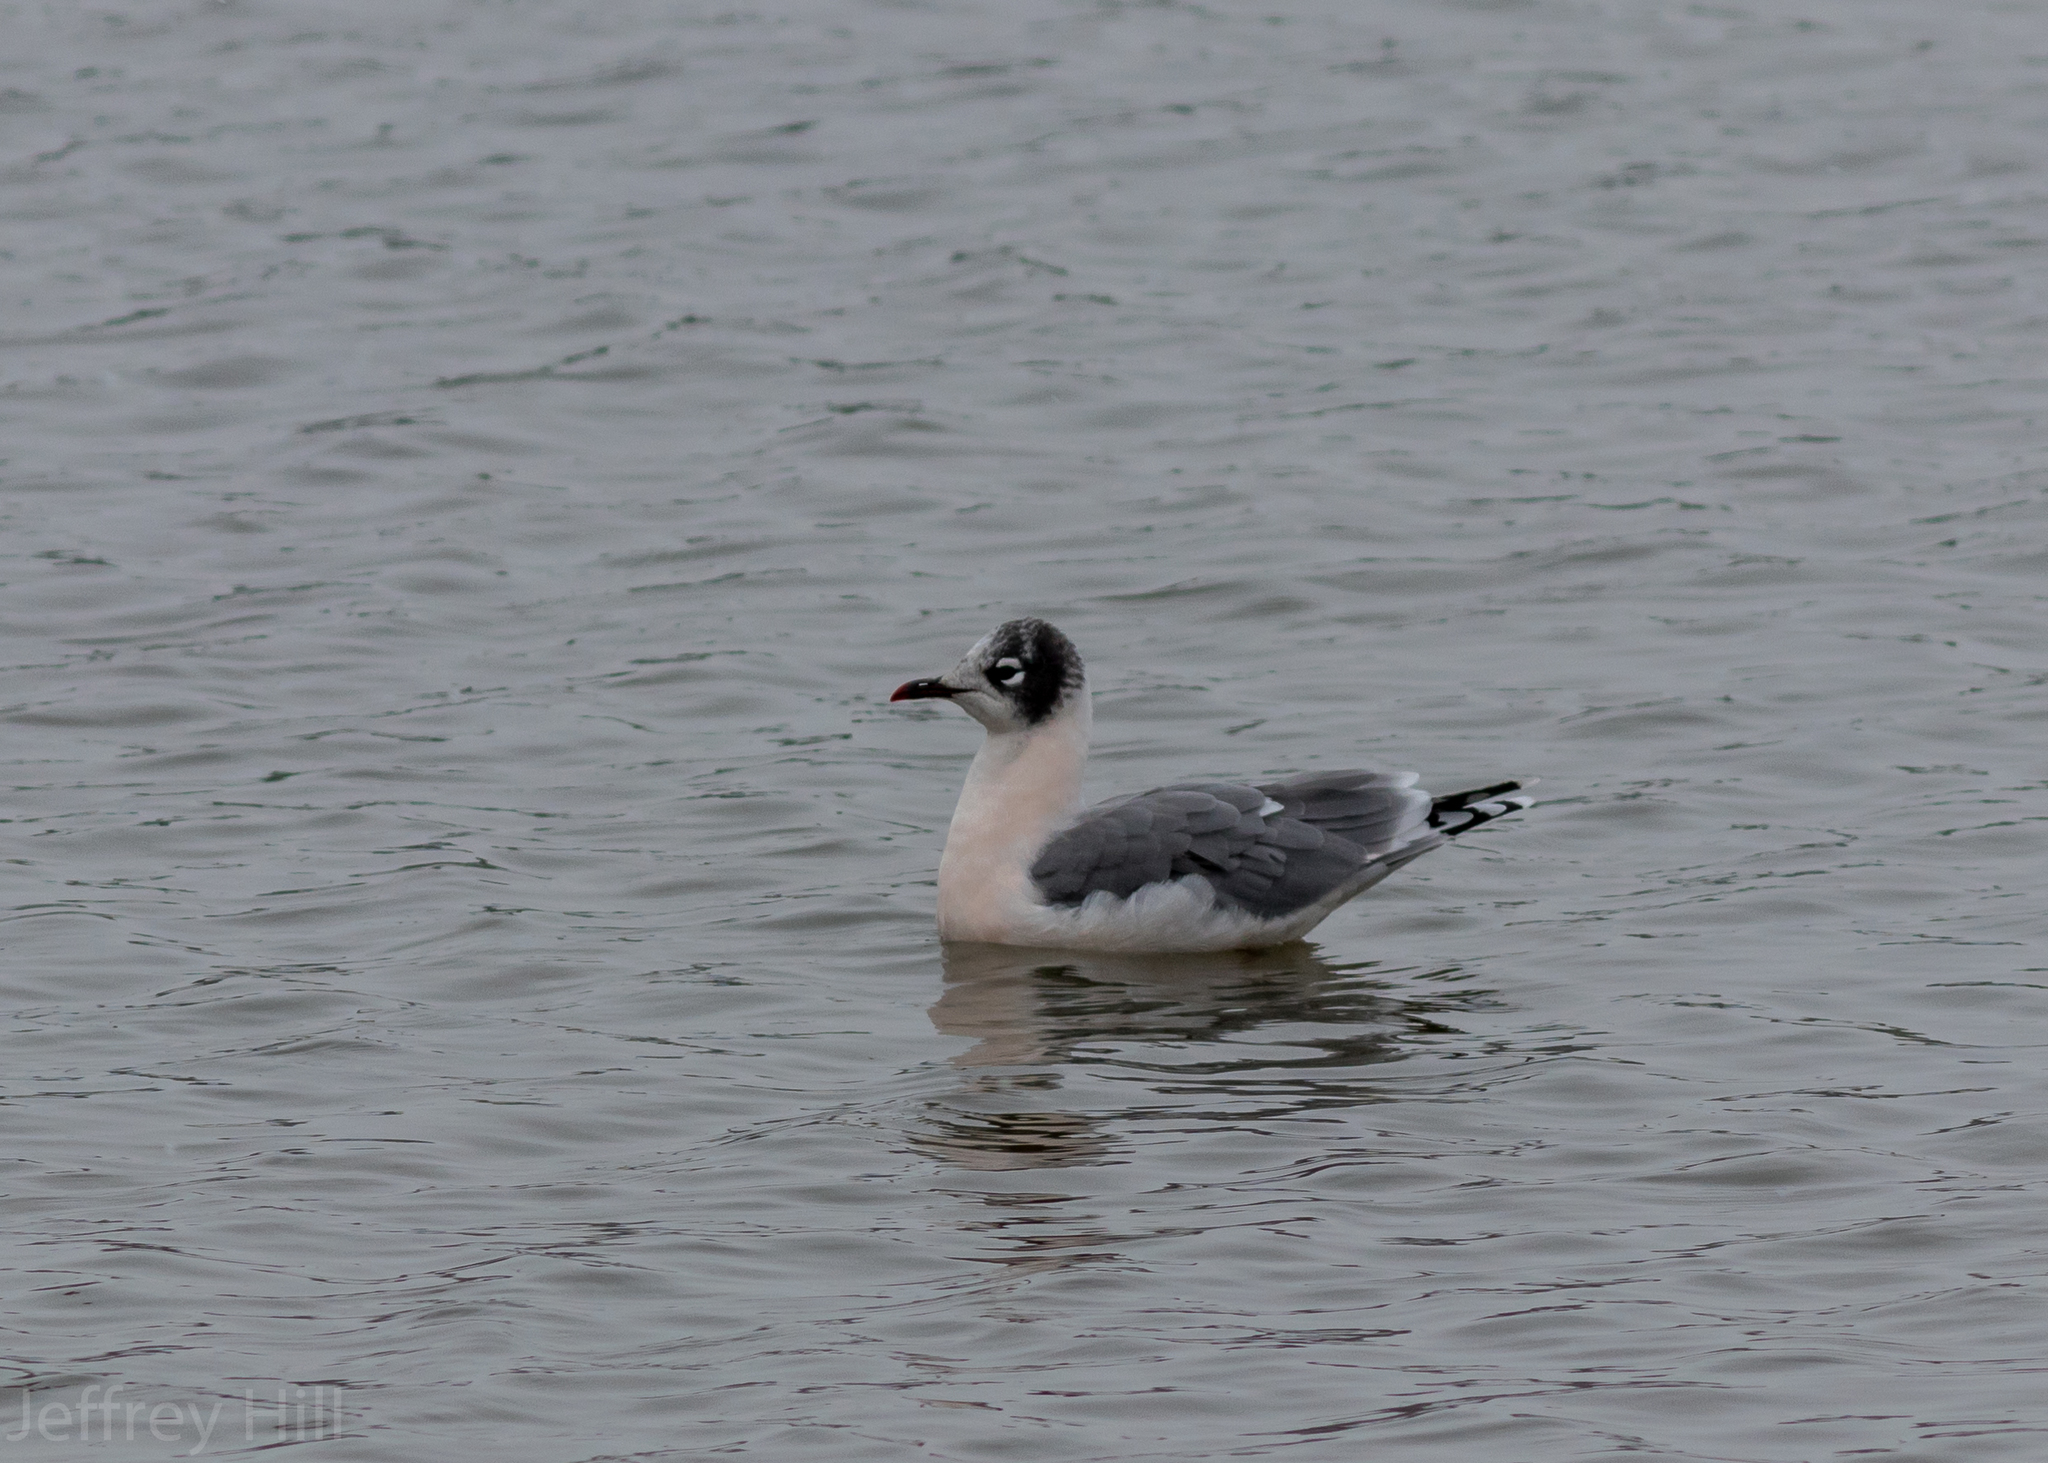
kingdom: Animalia
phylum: Chordata
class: Aves
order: Charadriiformes
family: Laridae
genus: Leucophaeus
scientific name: Leucophaeus pipixcan
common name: Franklin's gull
